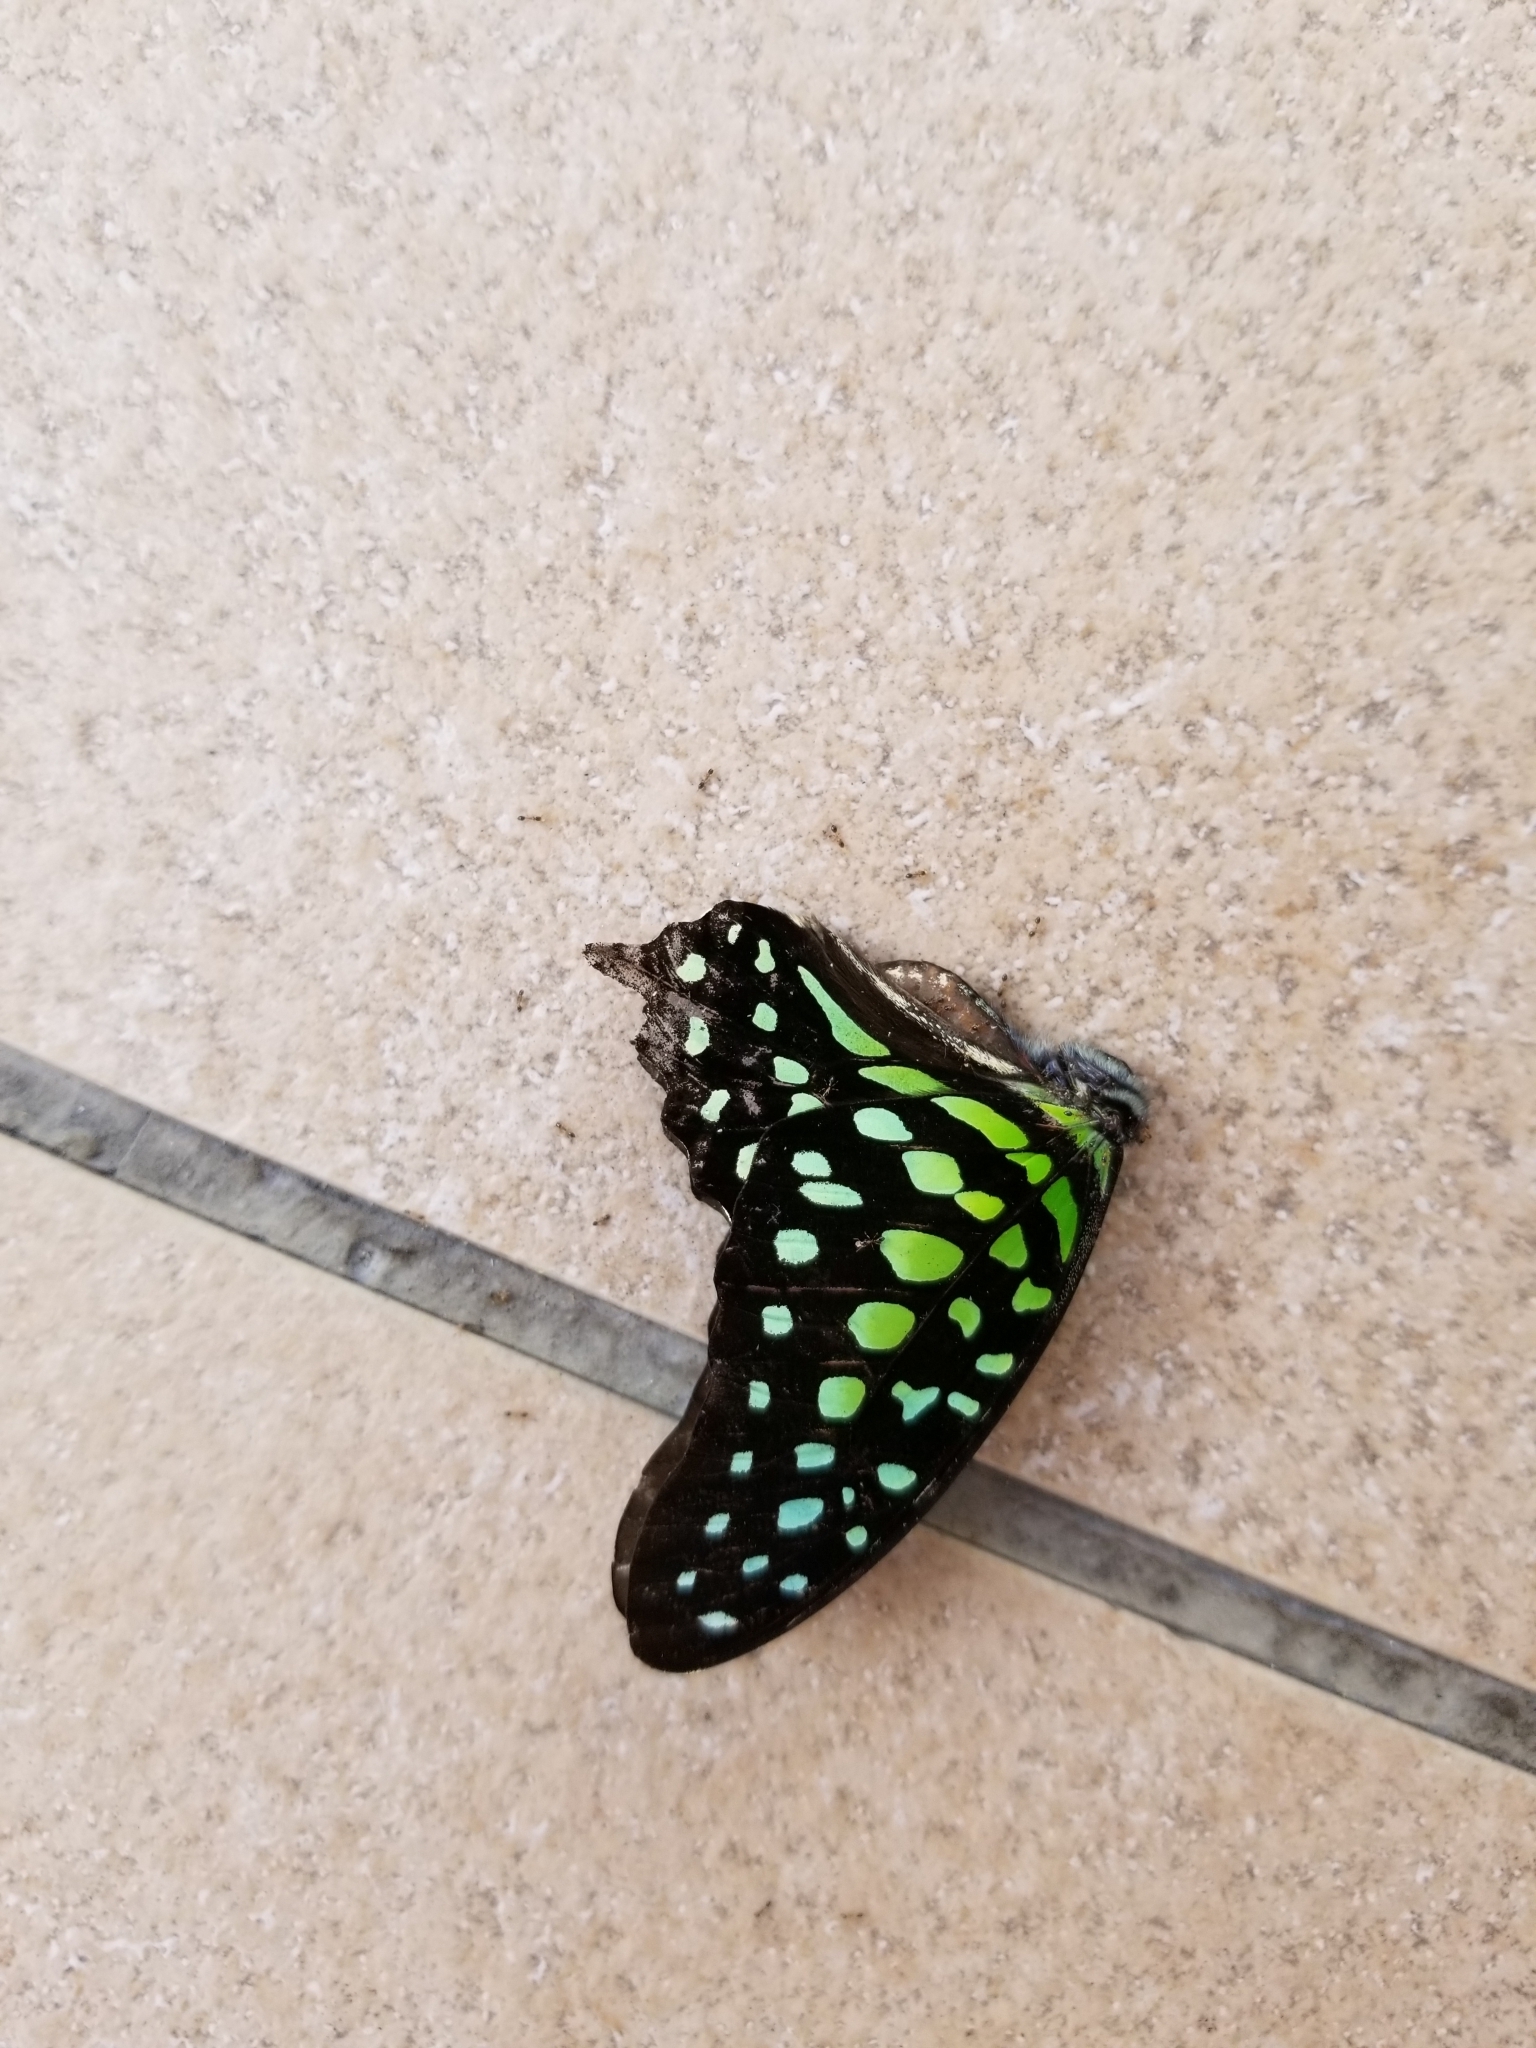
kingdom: Animalia
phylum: Arthropoda
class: Insecta
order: Lepidoptera
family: Papilionidae
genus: Graphium
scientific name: Graphium agamemnon
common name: Tailed jay
